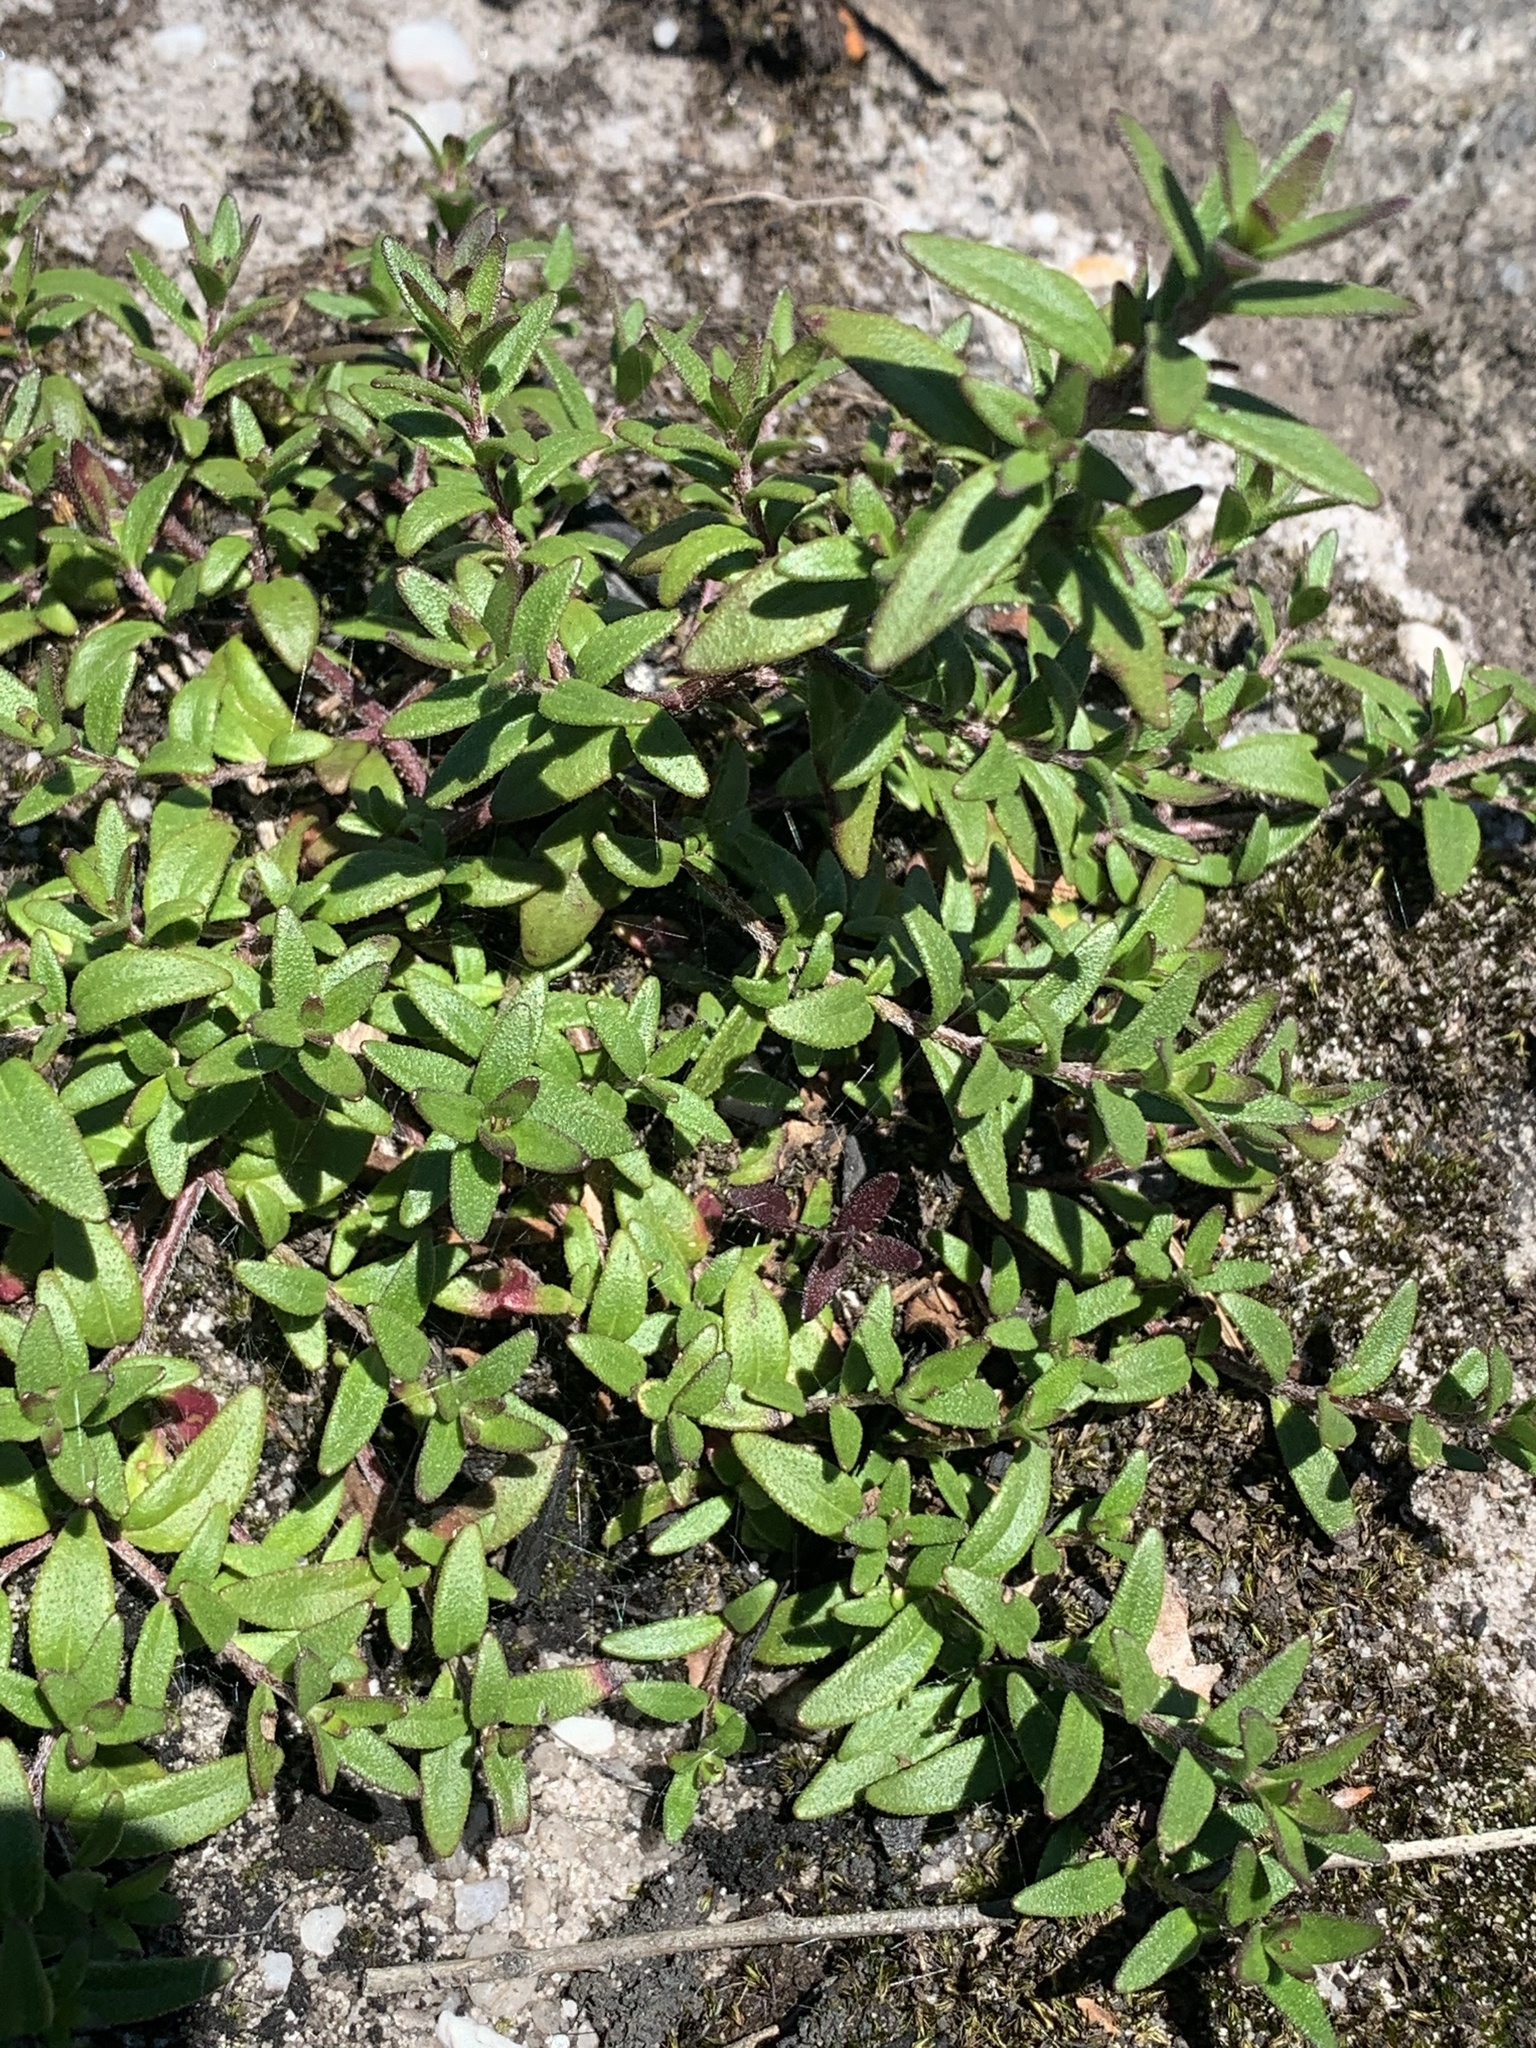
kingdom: Plantae
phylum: Tracheophyta
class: Magnoliopsida
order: Lamiales
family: Lamiaceae
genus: Prostanthera
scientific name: Prostanthera saxicola
